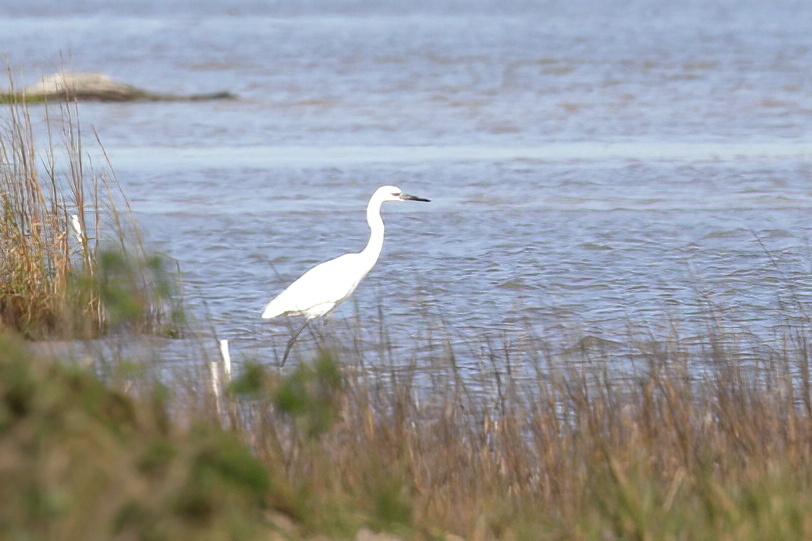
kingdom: Animalia
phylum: Chordata
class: Aves
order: Pelecaniformes
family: Ardeidae
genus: Egretta
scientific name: Egretta rufescens
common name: Reddish egret
